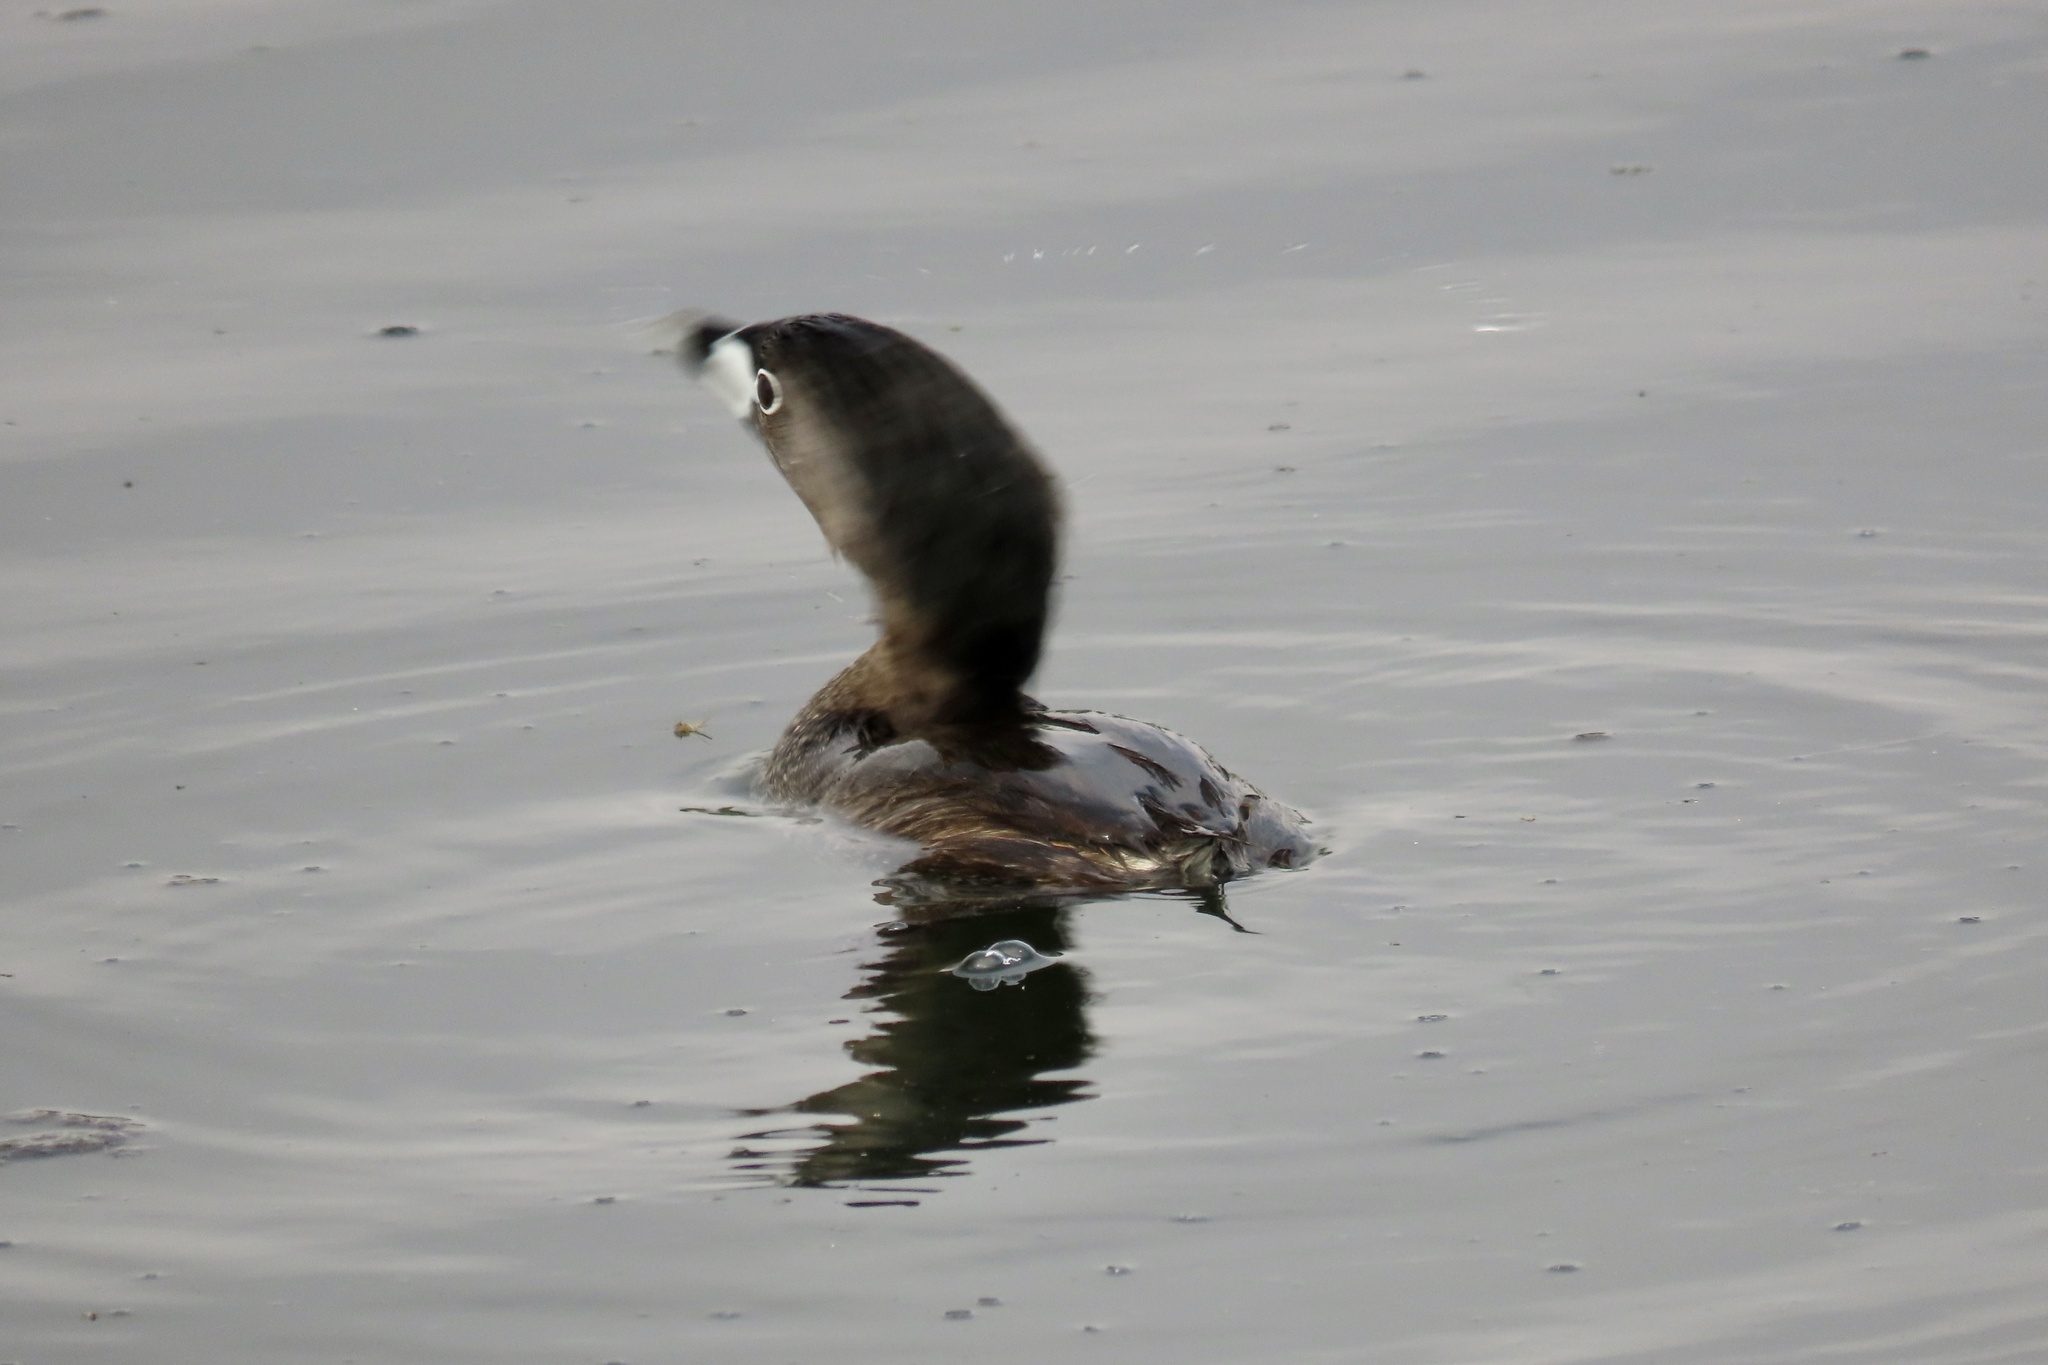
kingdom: Animalia
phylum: Chordata
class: Aves
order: Podicipediformes
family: Podicipedidae
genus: Podilymbus
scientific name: Podilymbus podiceps
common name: Pied-billed grebe
